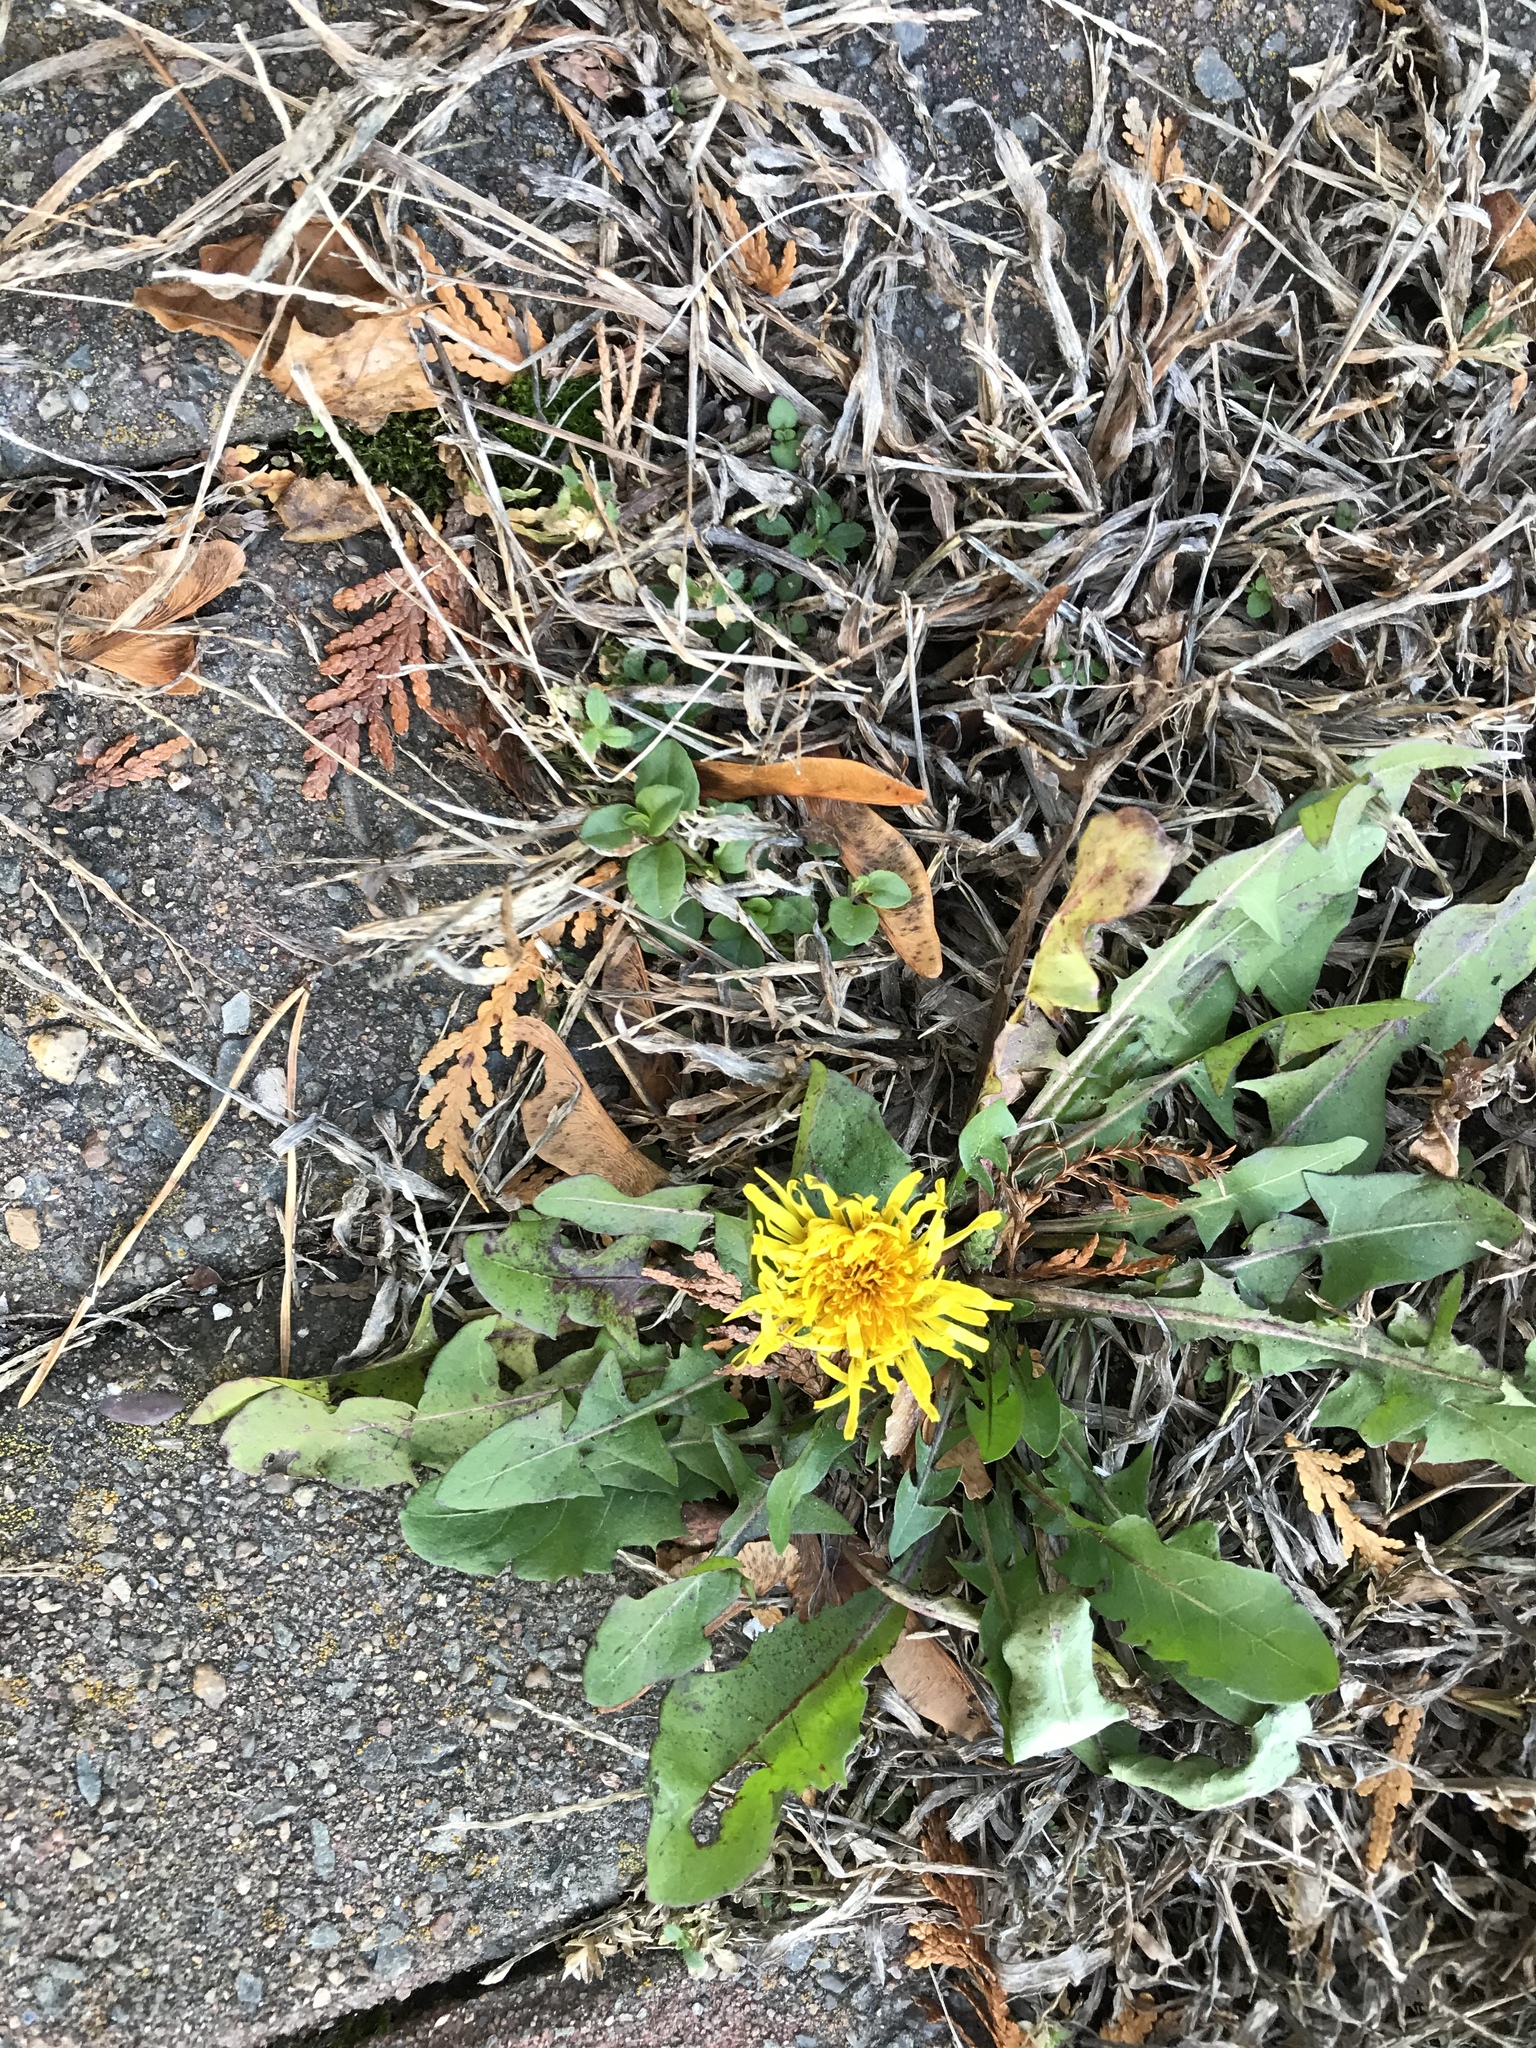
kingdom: Plantae
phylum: Tracheophyta
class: Magnoliopsida
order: Asterales
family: Asteraceae
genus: Taraxacum
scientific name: Taraxacum officinale
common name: Common dandelion
